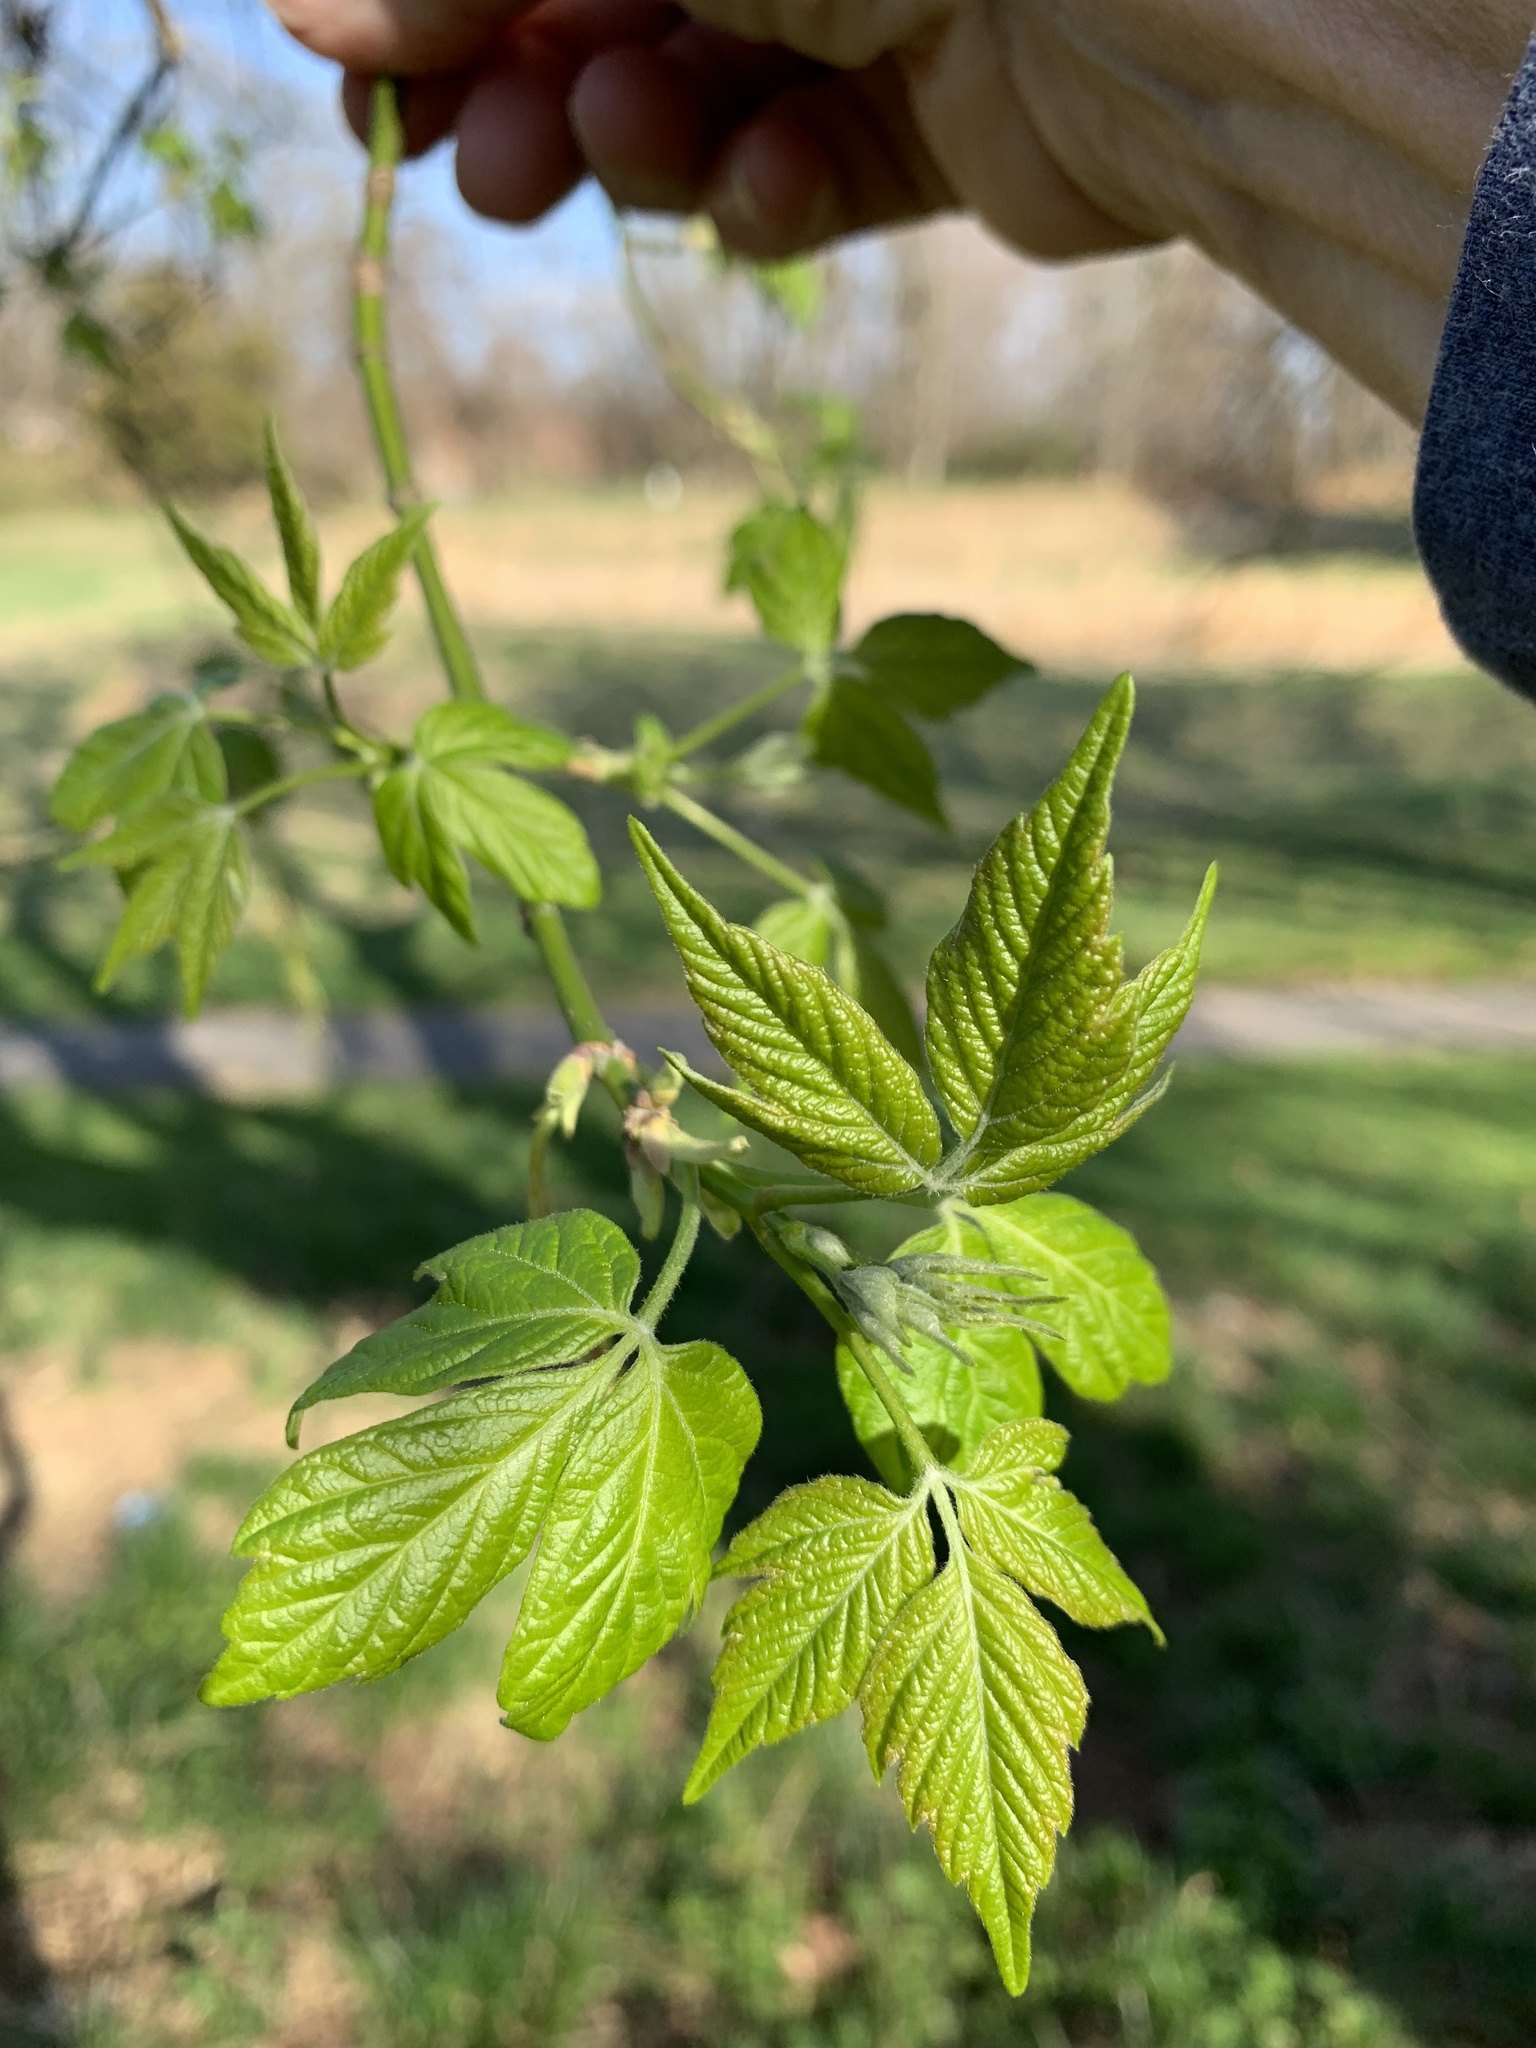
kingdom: Plantae
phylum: Tracheophyta
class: Magnoliopsida
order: Sapindales
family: Sapindaceae
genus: Acer
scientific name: Acer negundo
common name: Ashleaf maple
